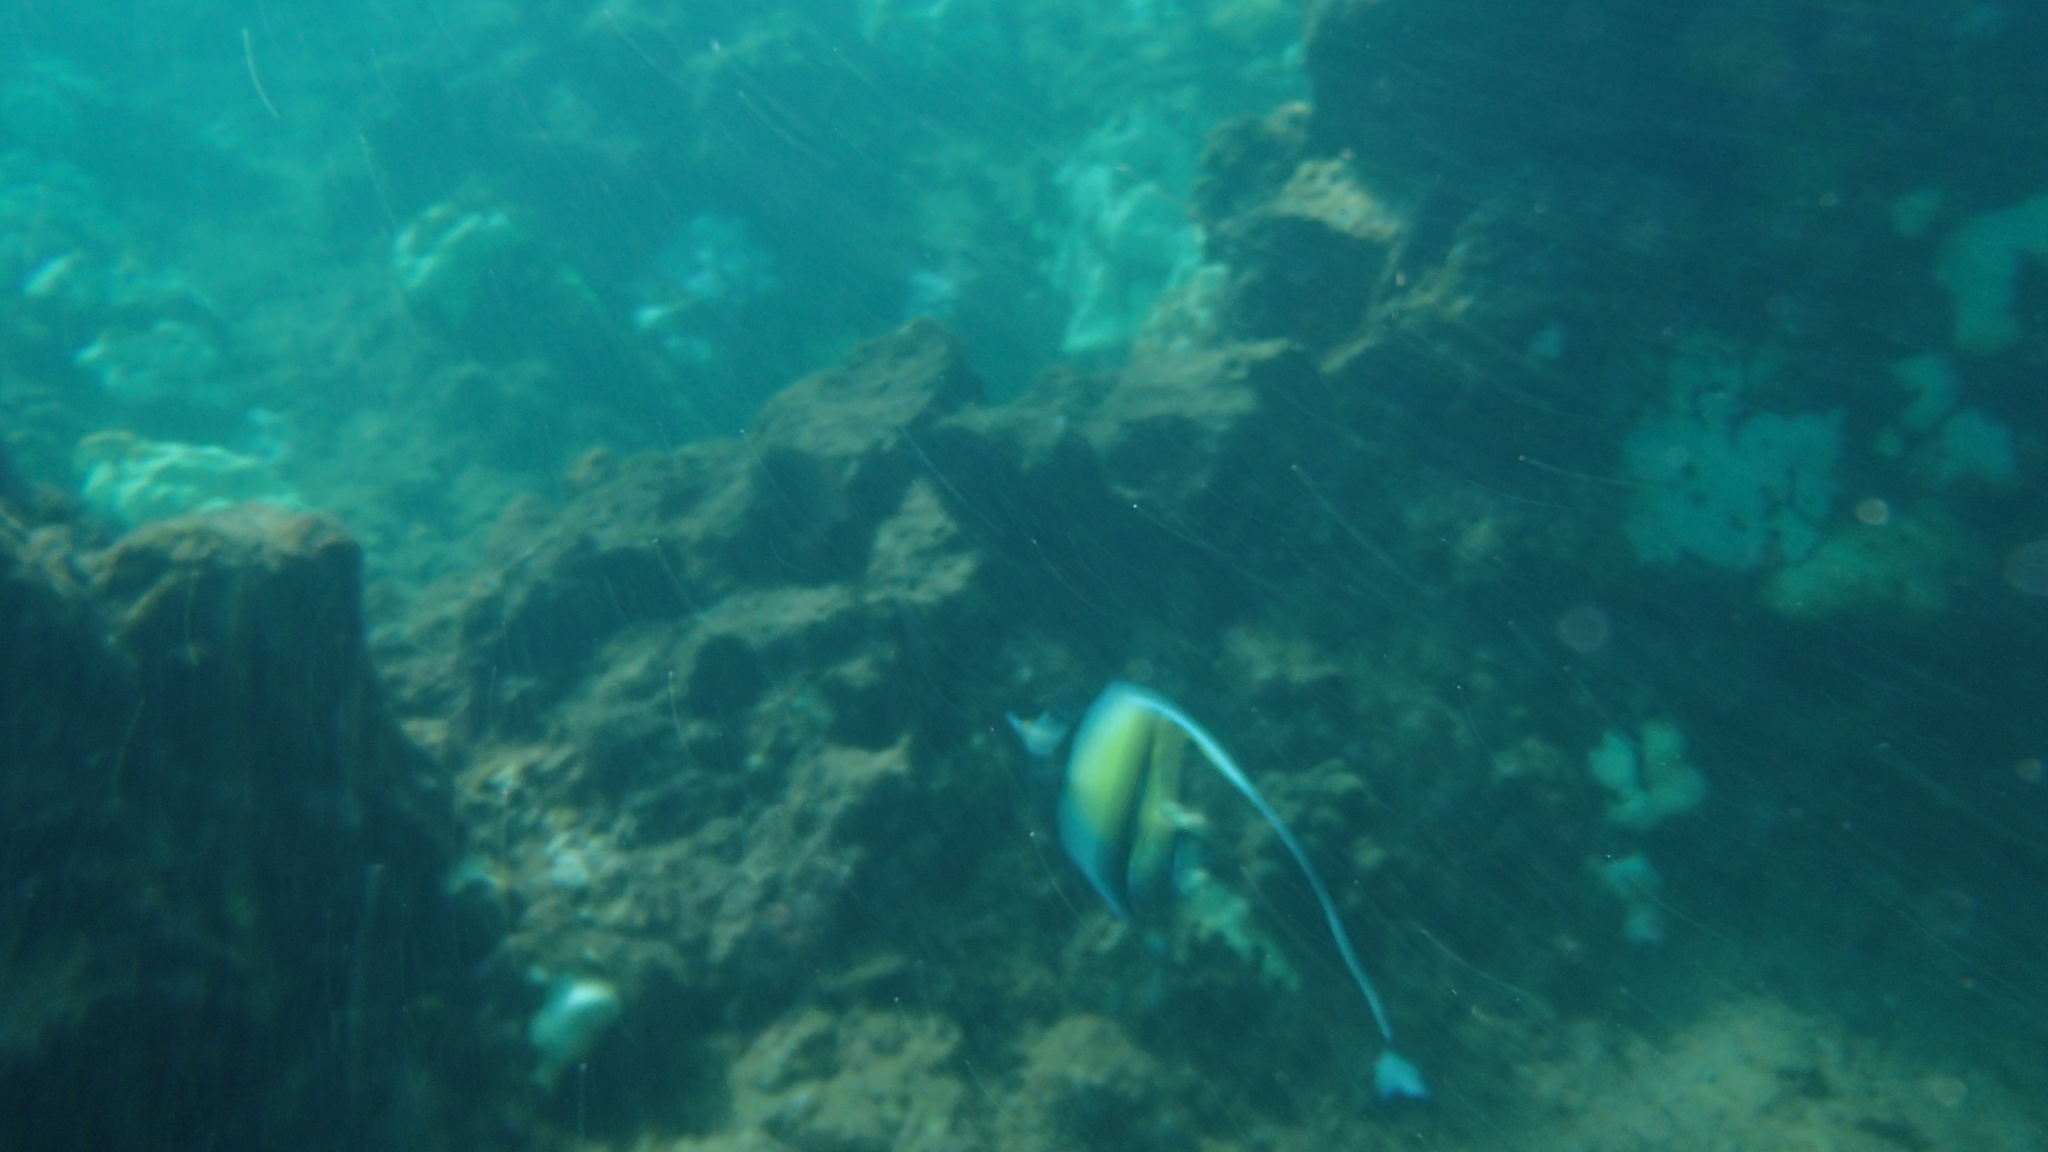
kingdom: Animalia
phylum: Chordata
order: Perciformes
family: Zanclidae
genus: Zanclus
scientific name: Zanclus cornutus
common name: Moorish idol
